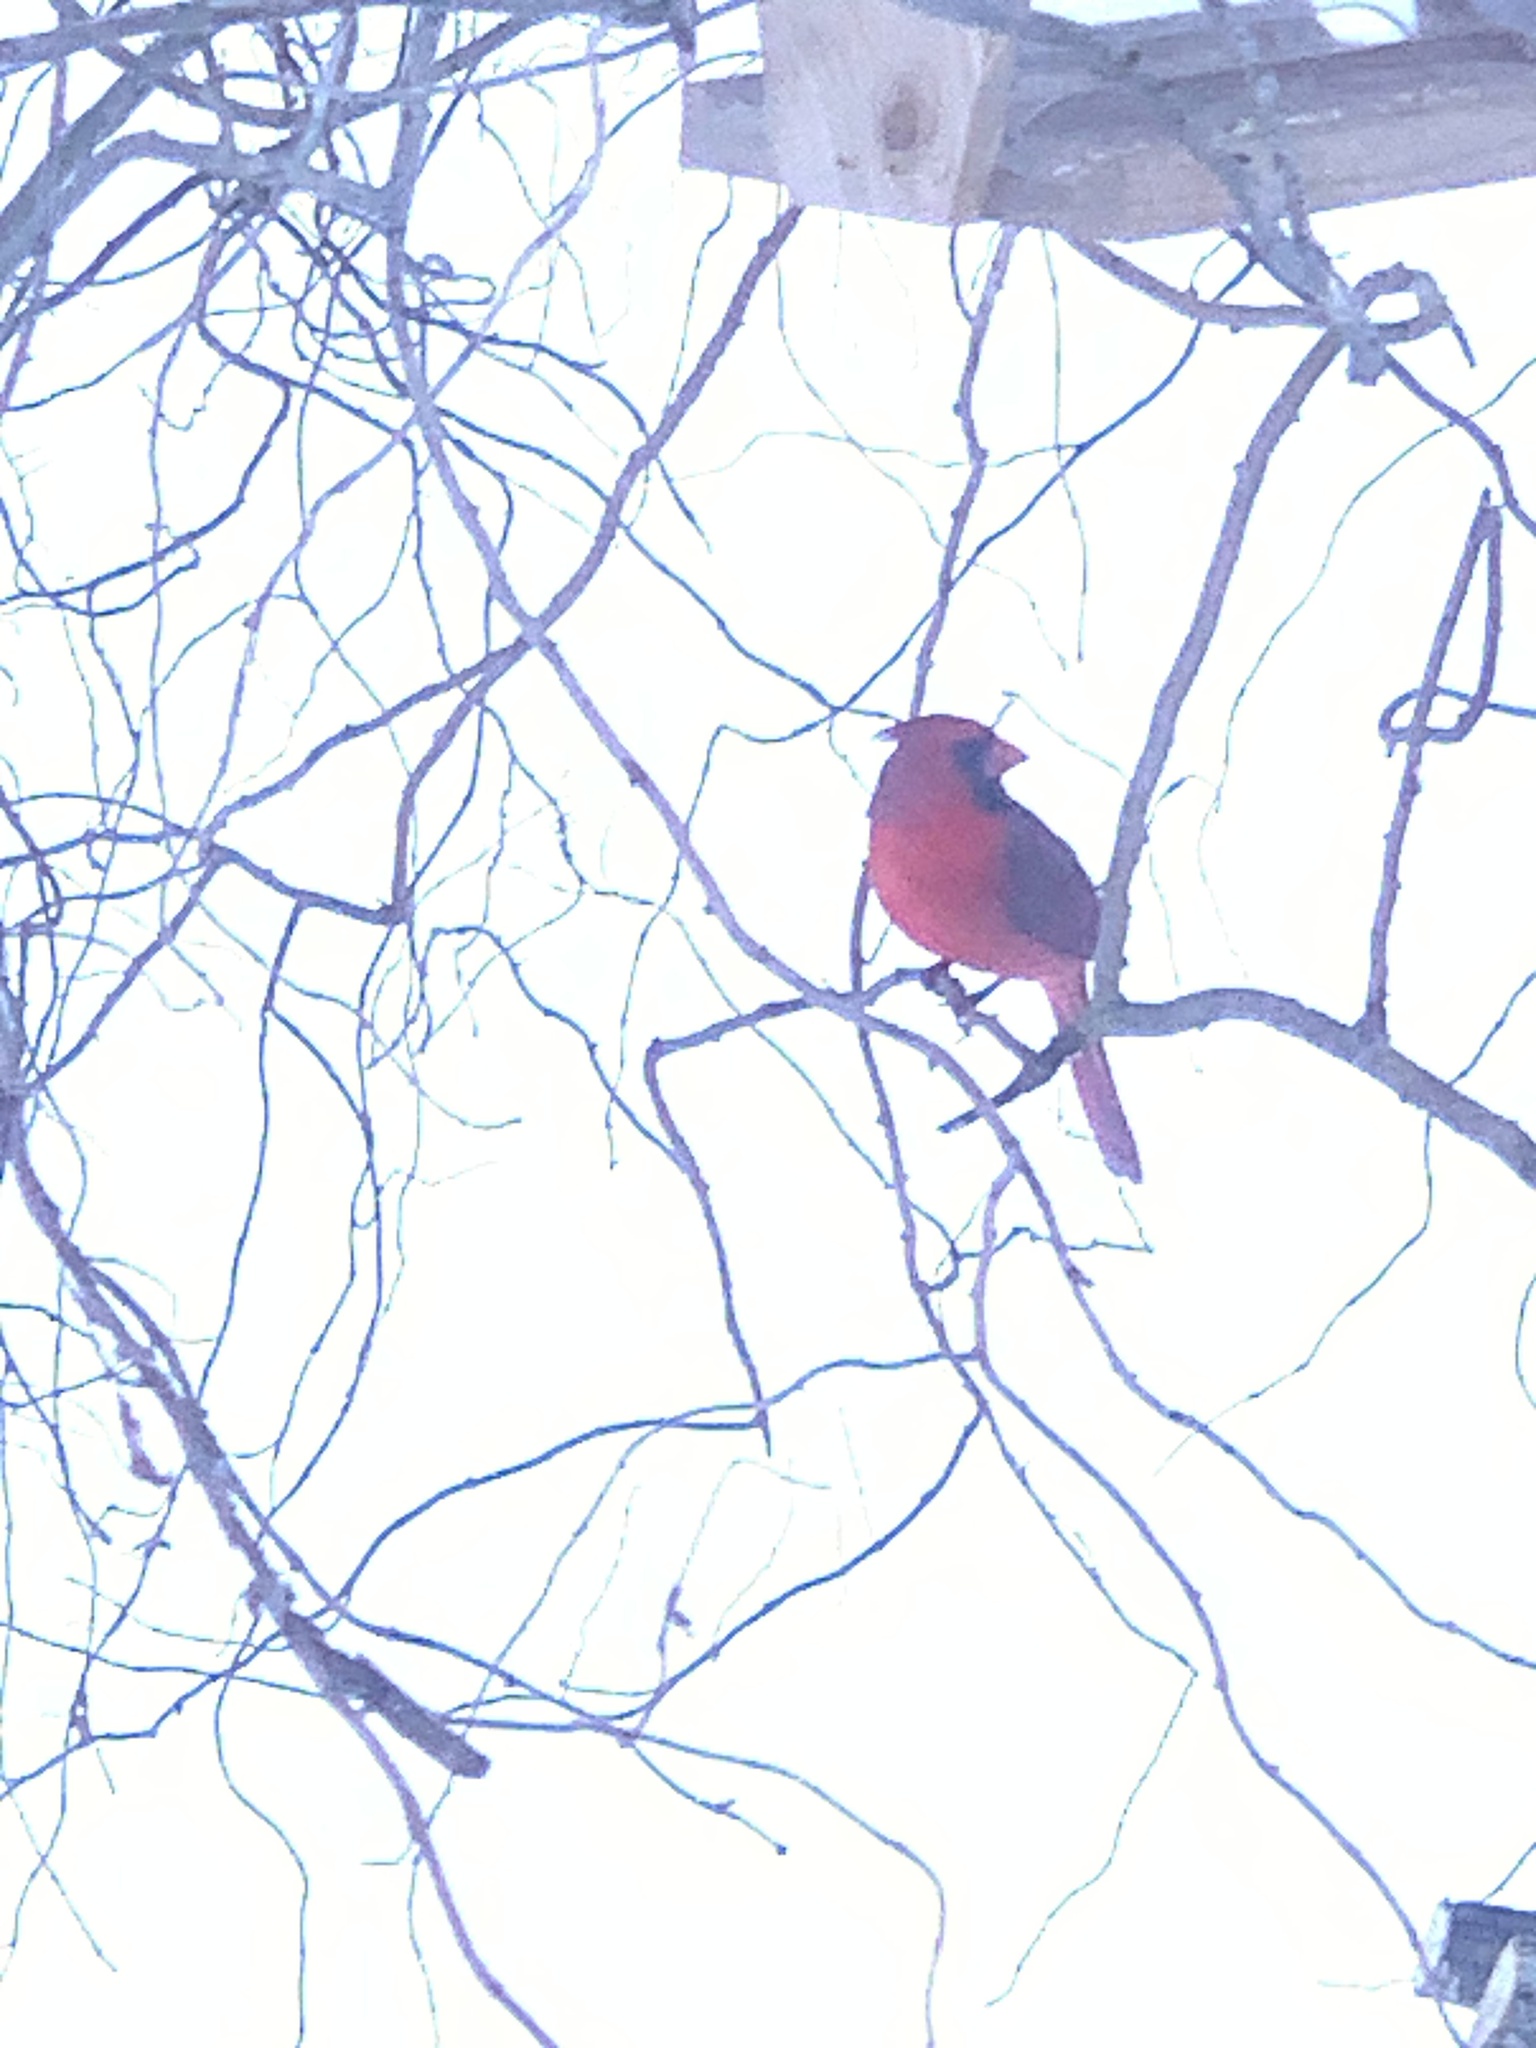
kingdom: Animalia
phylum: Chordata
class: Aves
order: Passeriformes
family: Cardinalidae
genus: Cardinalis
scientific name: Cardinalis cardinalis
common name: Northern cardinal
